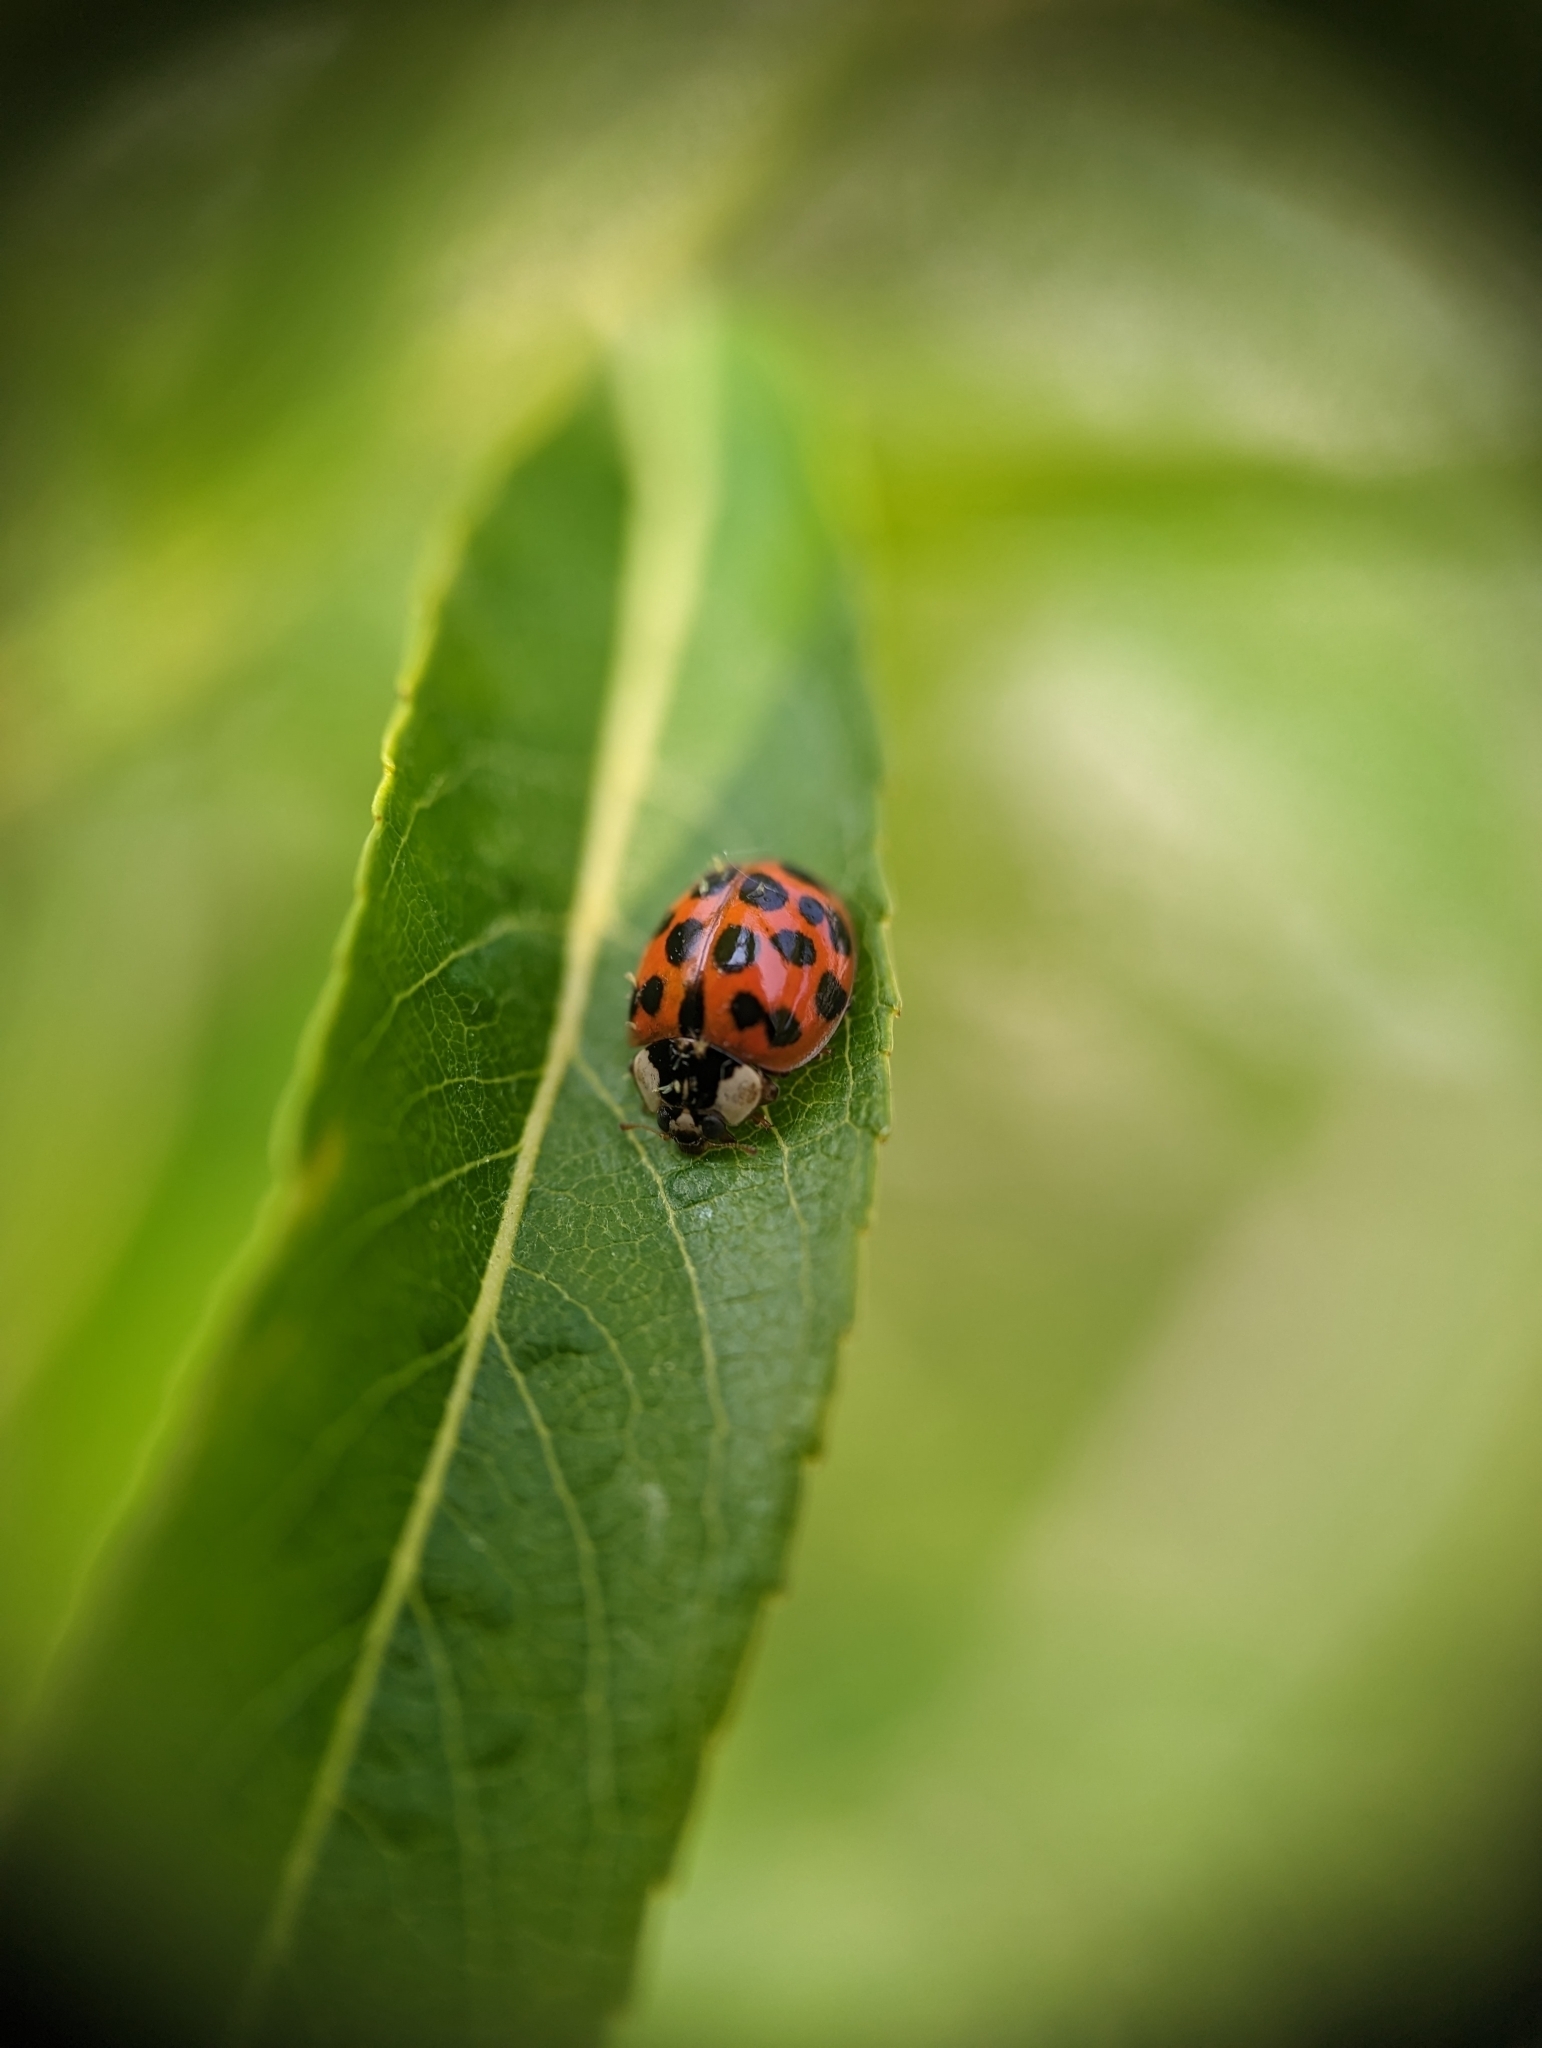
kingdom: Animalia
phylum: Arthropoda
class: Insecta
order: Coleoptera
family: Coccinellidae
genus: Harmonia
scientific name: Harmonia axyridis
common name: Harlequin ladybird
